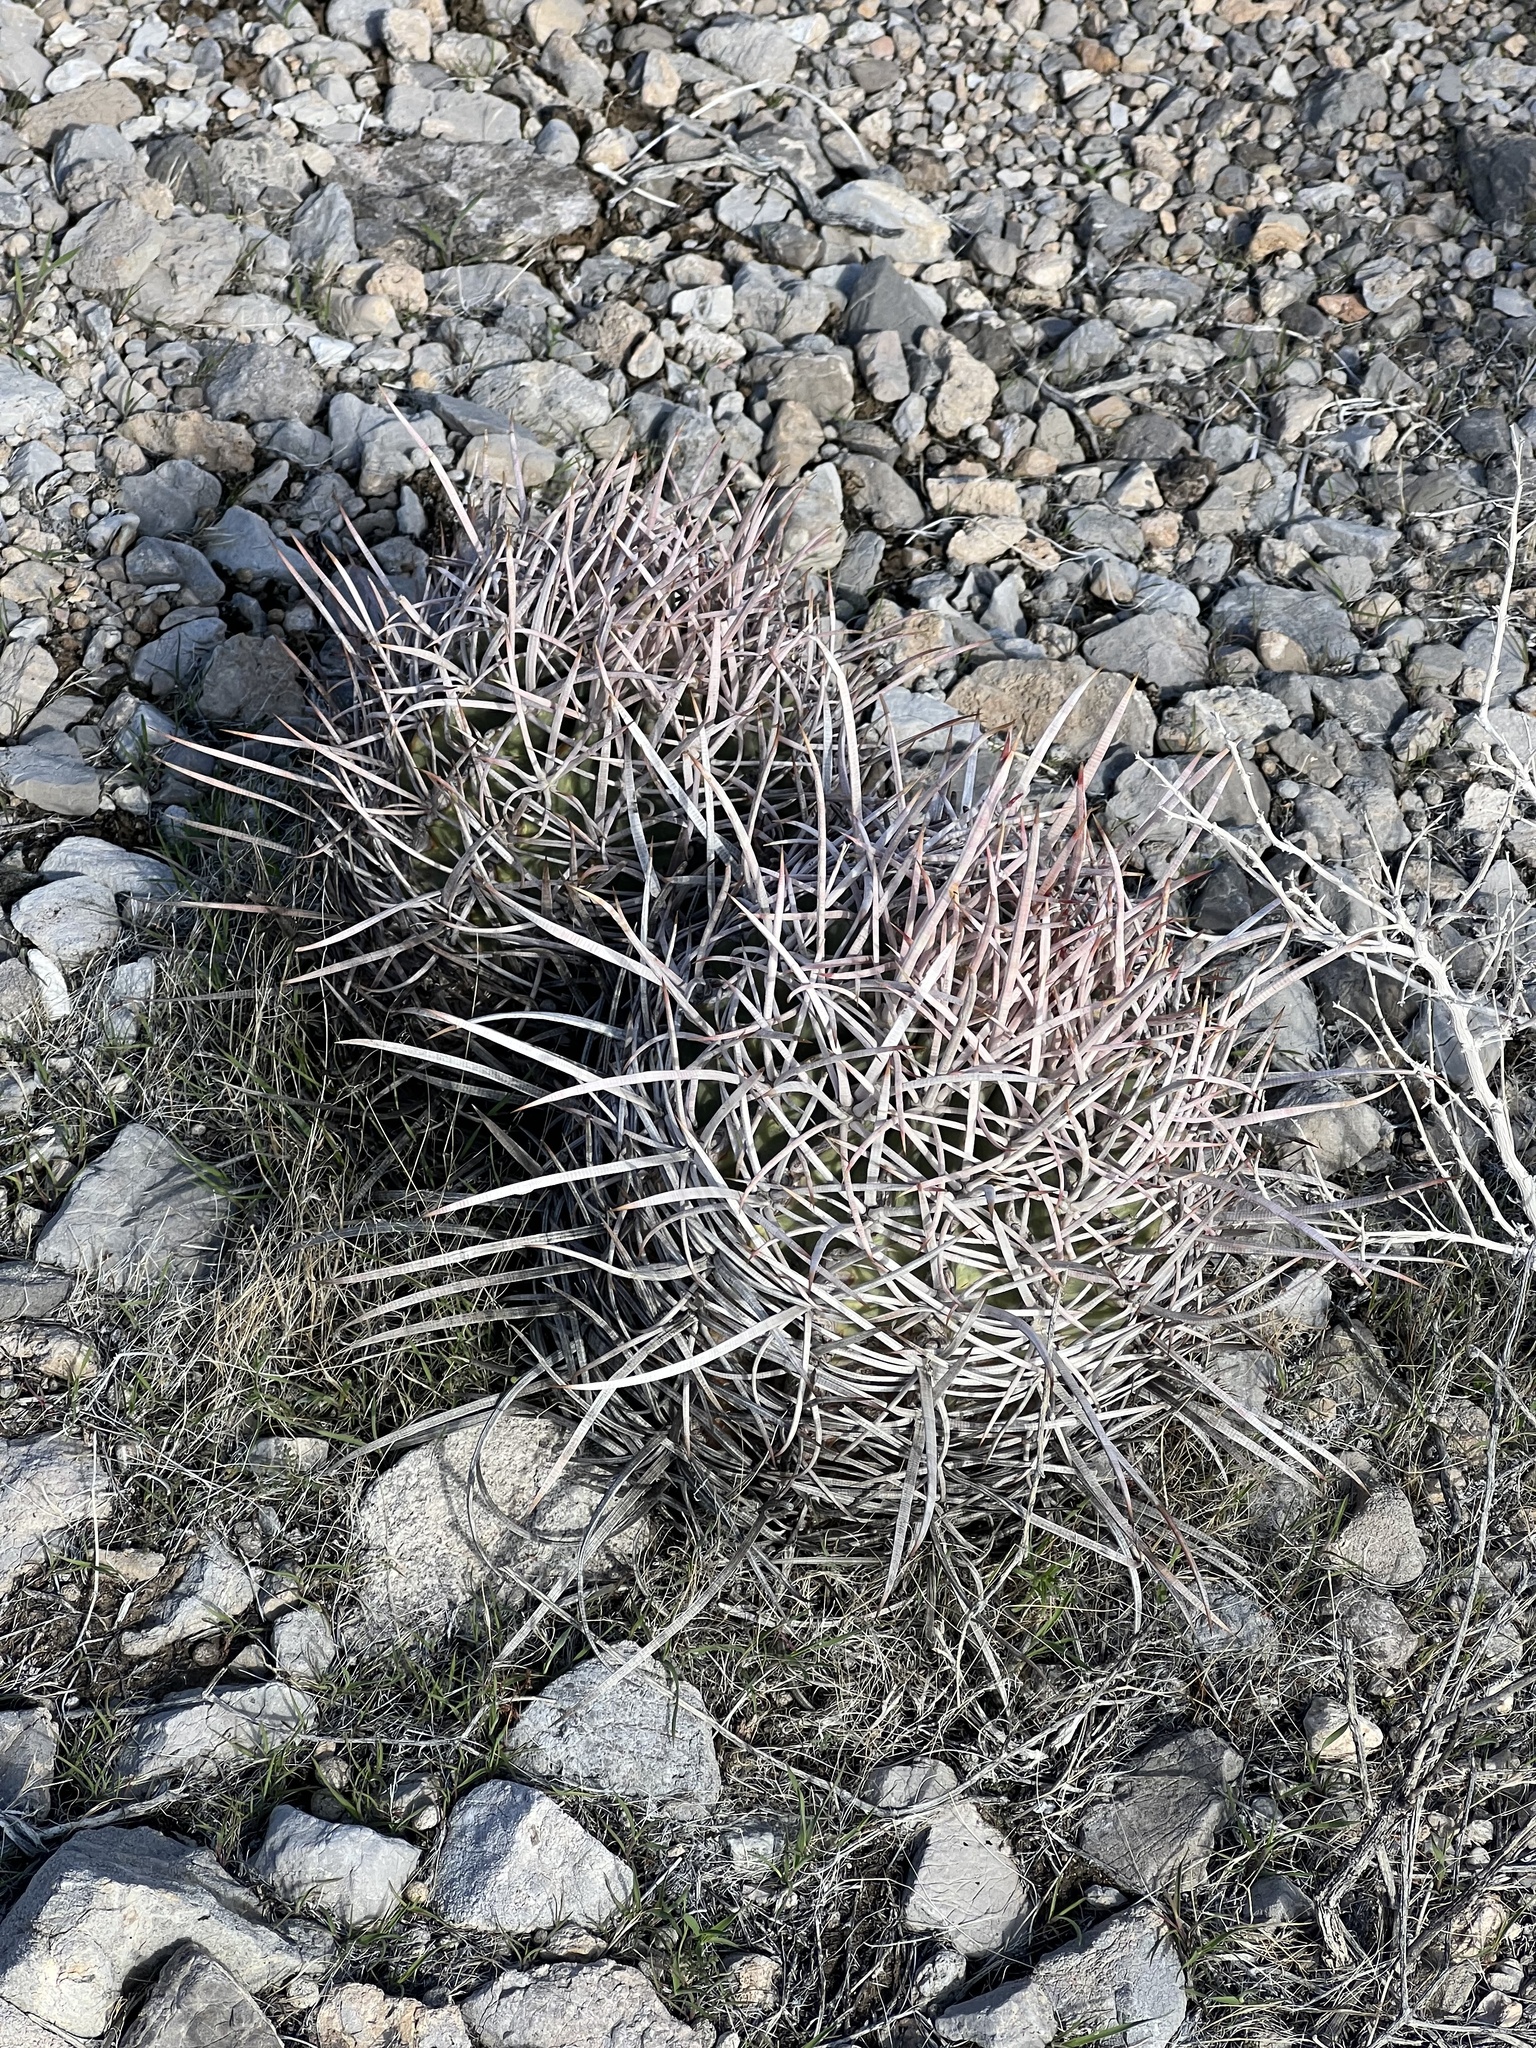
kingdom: Plantae
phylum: Tracheophyta
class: Magnoliopsida
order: Caryophyllales
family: Cactaceae
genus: Echinocactus
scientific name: Echinocactus polycephalus
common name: Cottontop cactus
